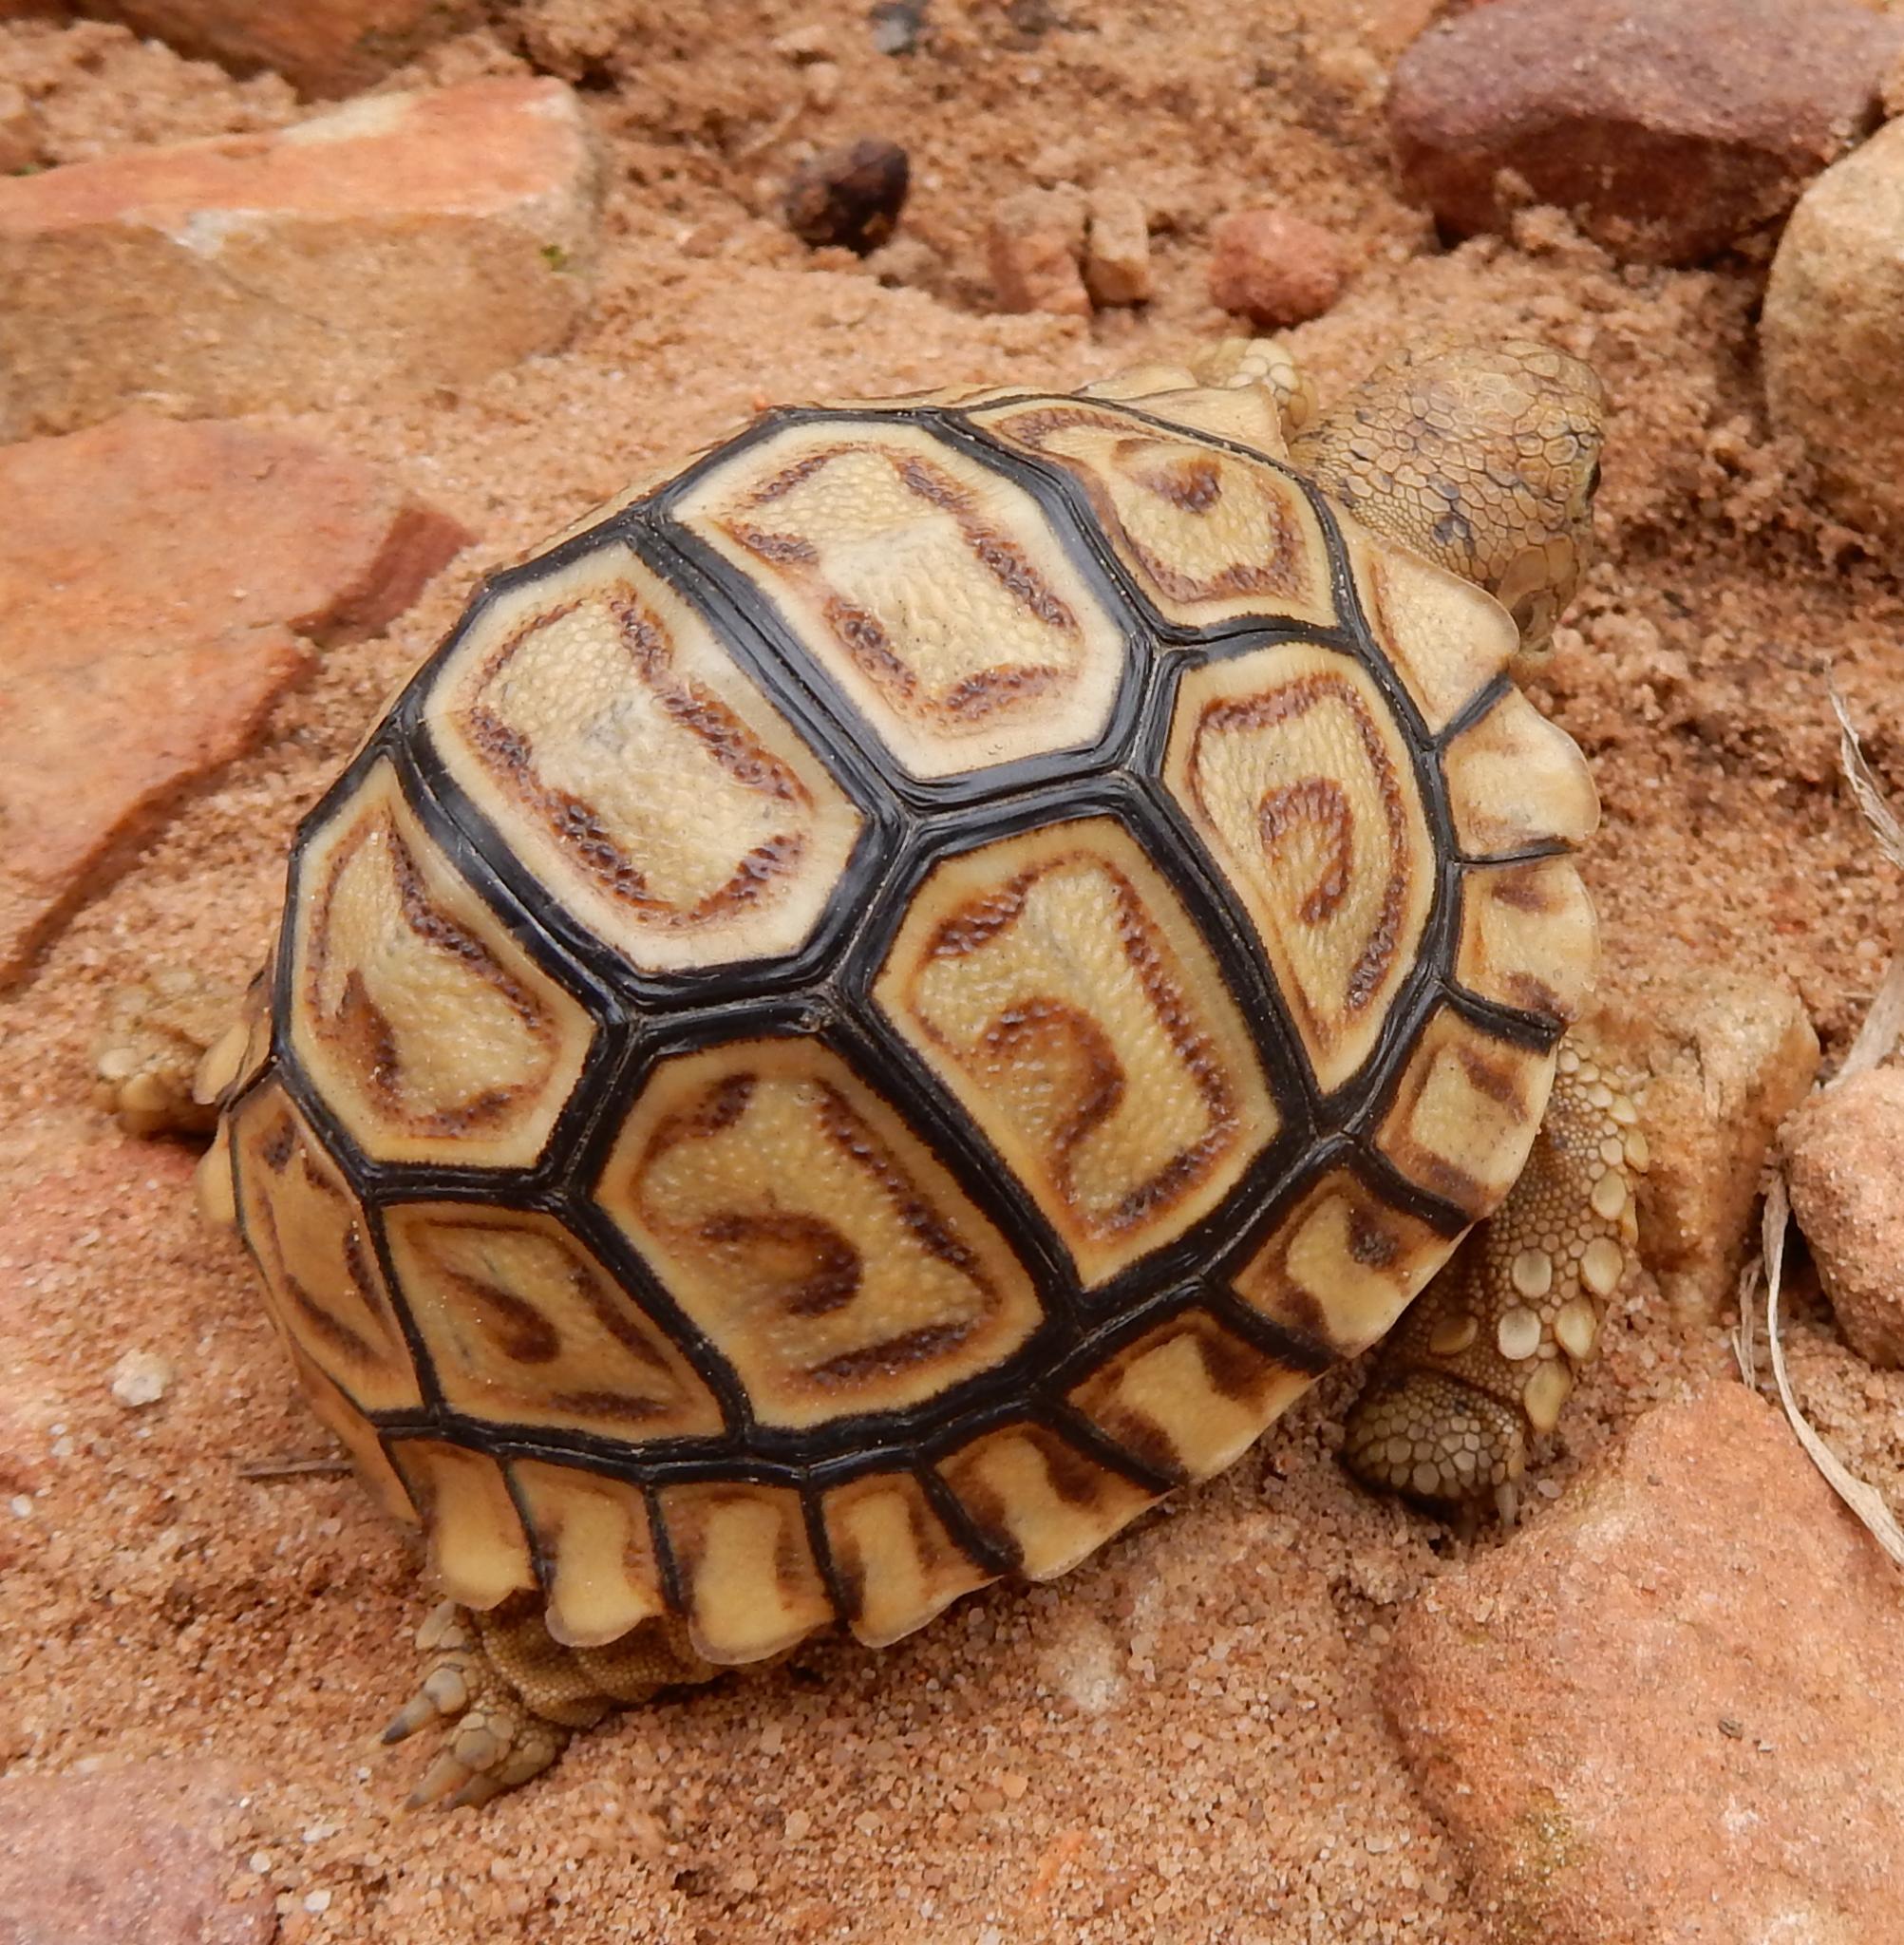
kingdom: Animalia
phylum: Chordata
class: Testudines
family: Testudinidae
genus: Stigmochelys
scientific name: Stigmochelys pardalis
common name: Leopard tortoise
